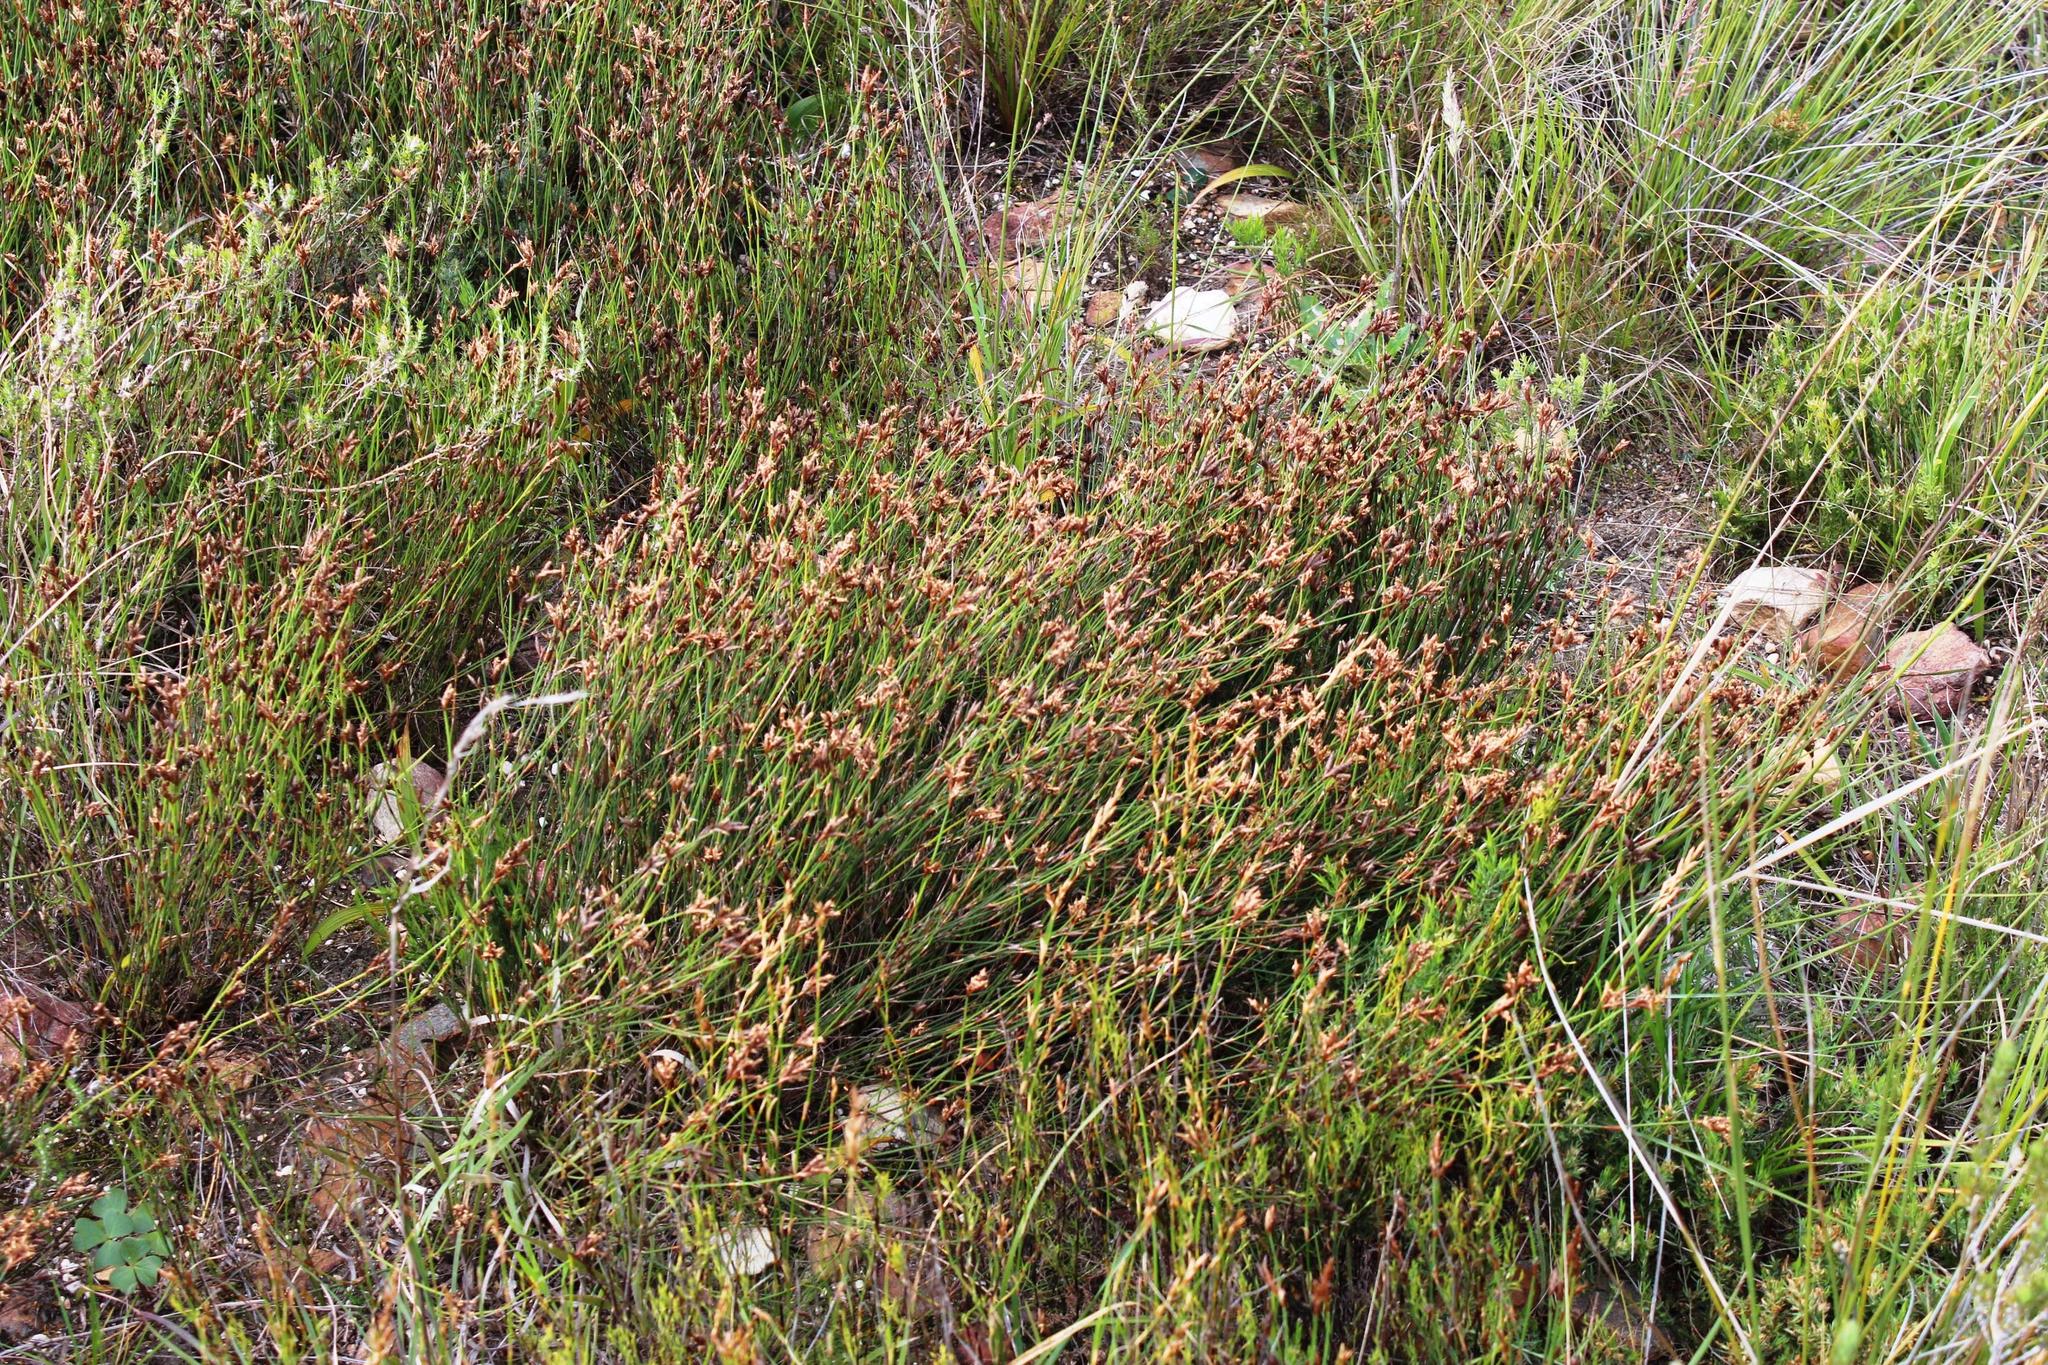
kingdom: Plantae
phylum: Tracheophyta
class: Liliopsida
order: Poales
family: Restionaceae
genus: Restio
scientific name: Restio capensis
